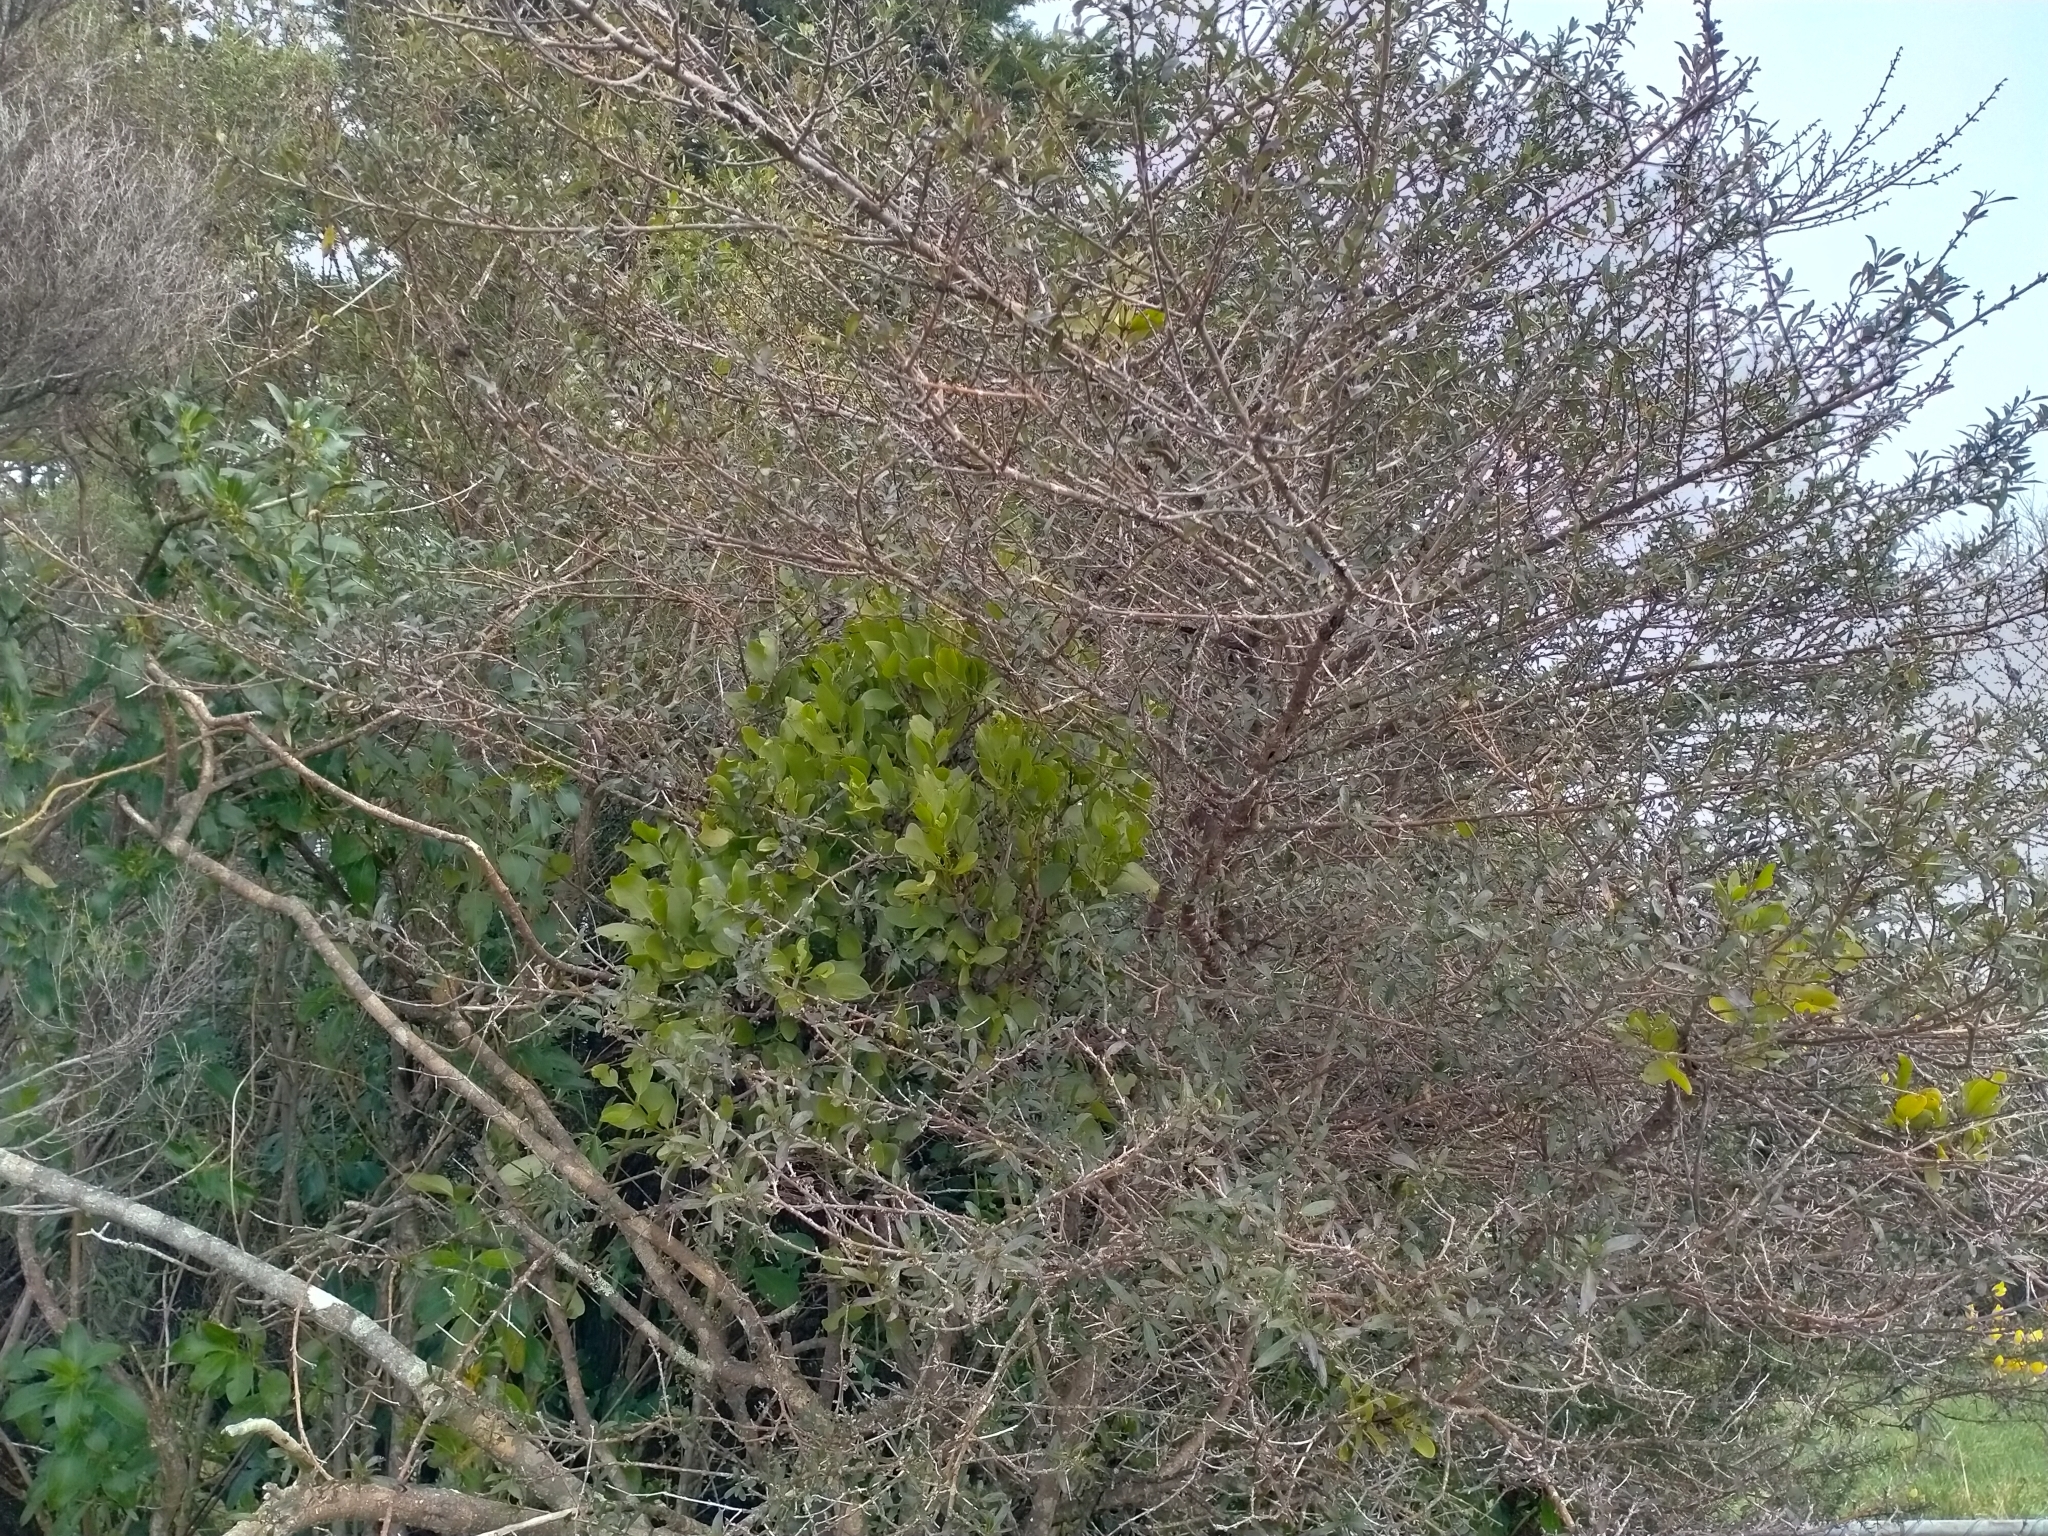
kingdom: Plantae
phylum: Tracheophyta
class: Magnoliopsida
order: Santalales
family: Loranthaceae
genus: Ileostylus
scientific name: Ileostylus micranthus
